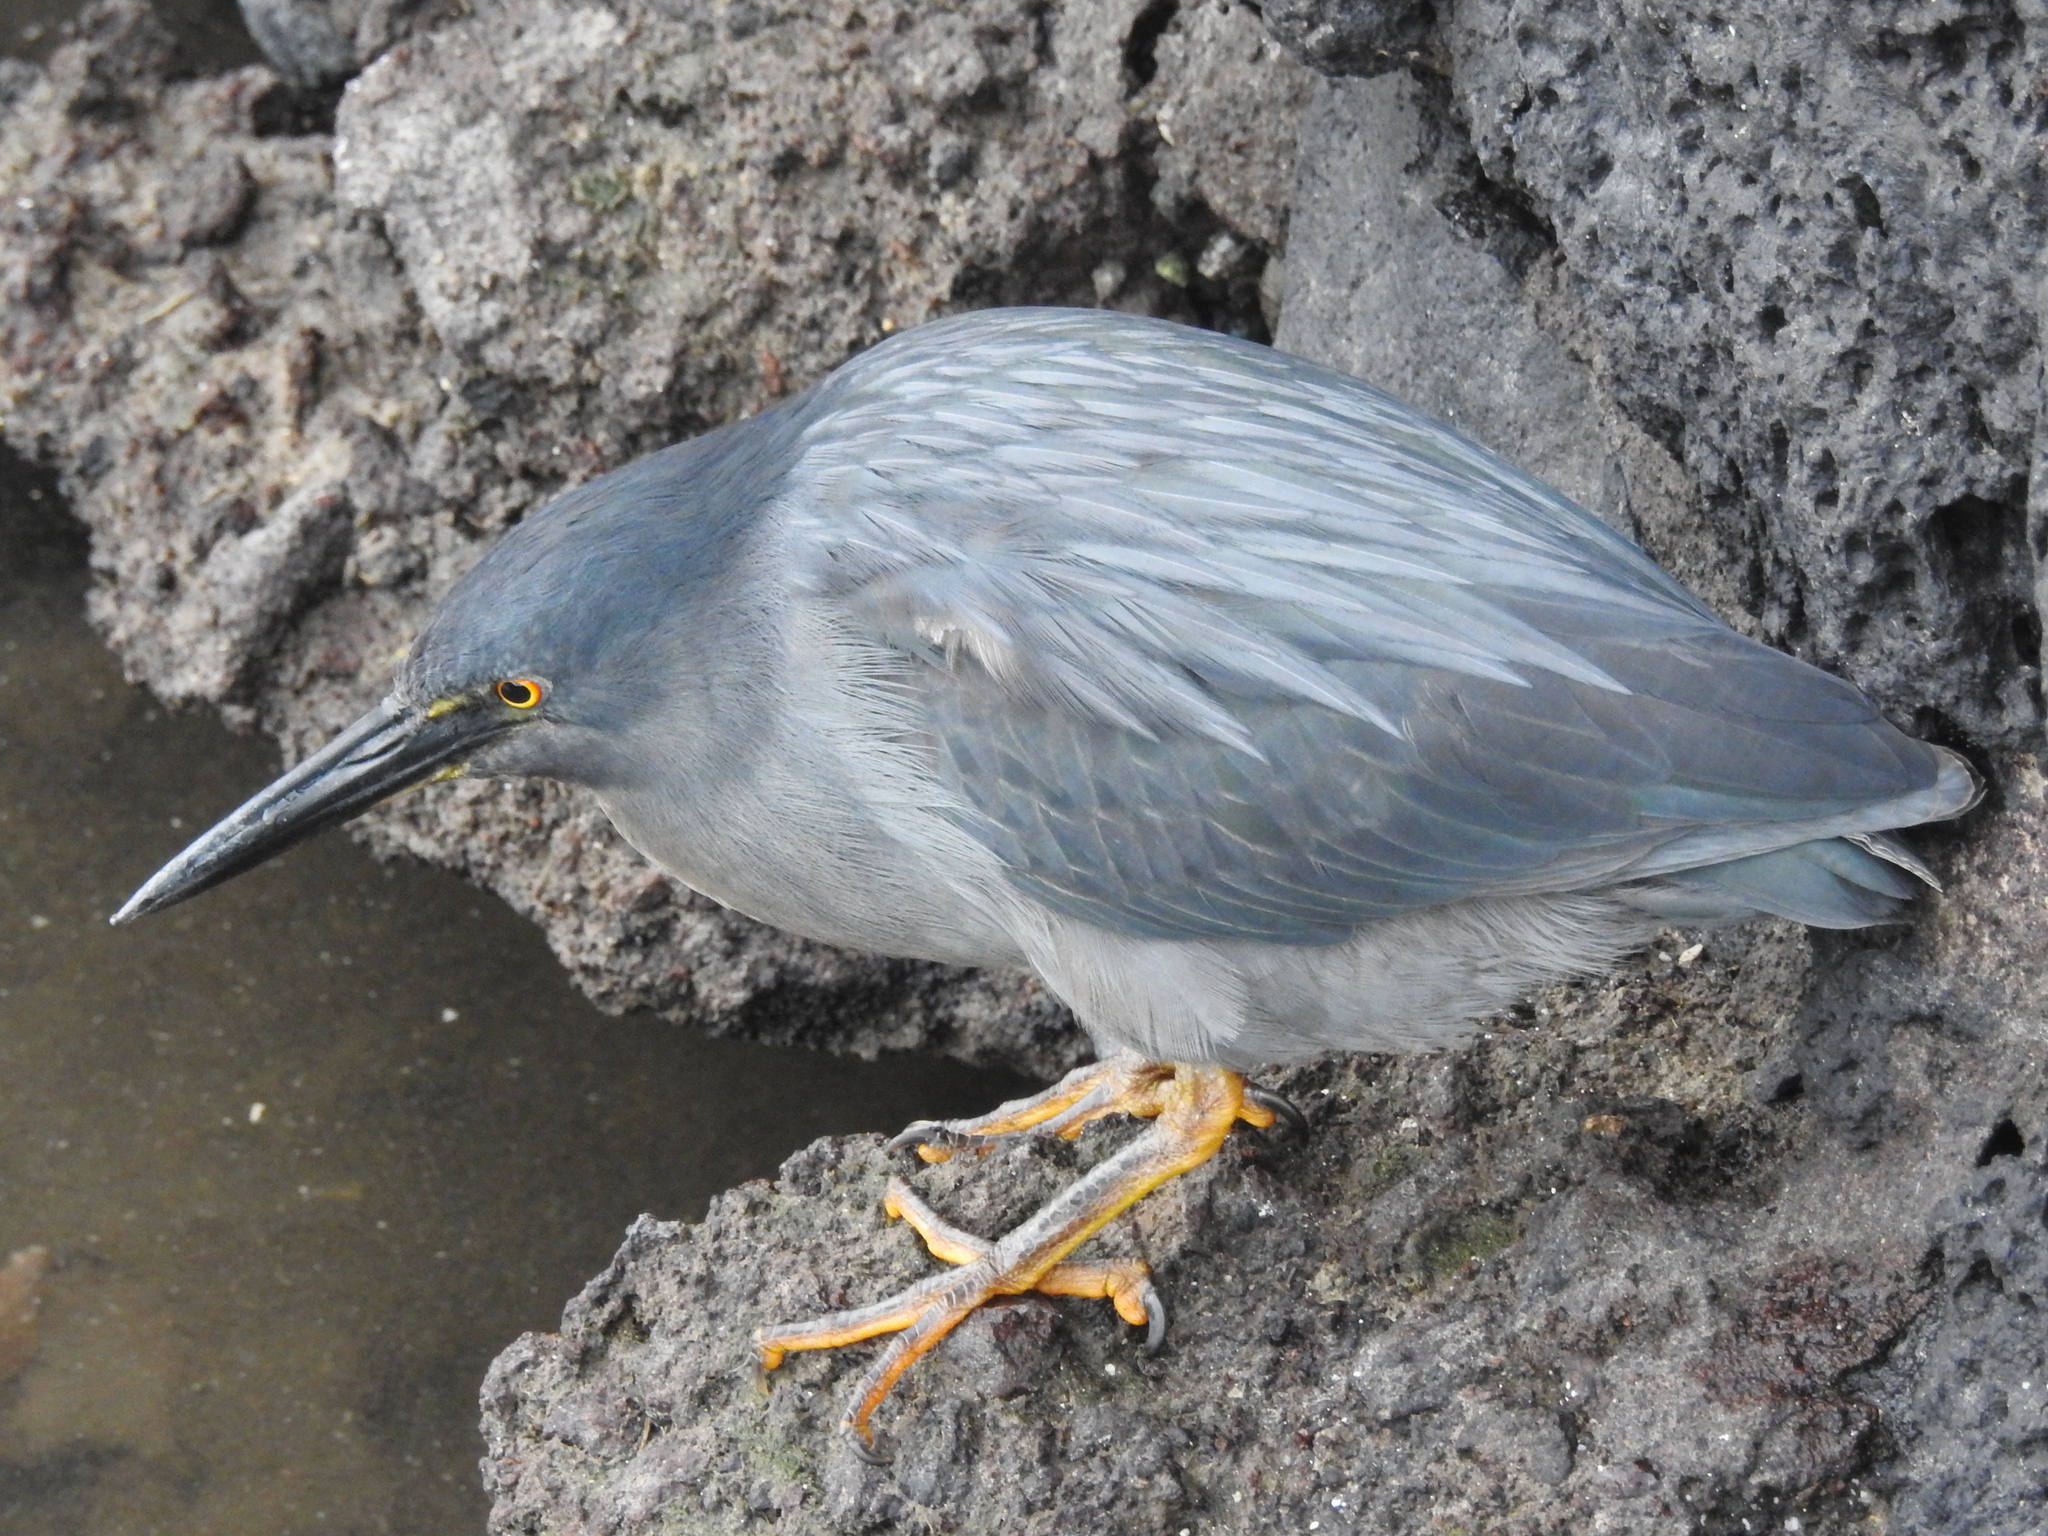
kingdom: Animalia
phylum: Chordata
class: Aves
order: Pelecaniformes
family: Ardeidae
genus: Butorides
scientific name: Butorides striata
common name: Striated heron
